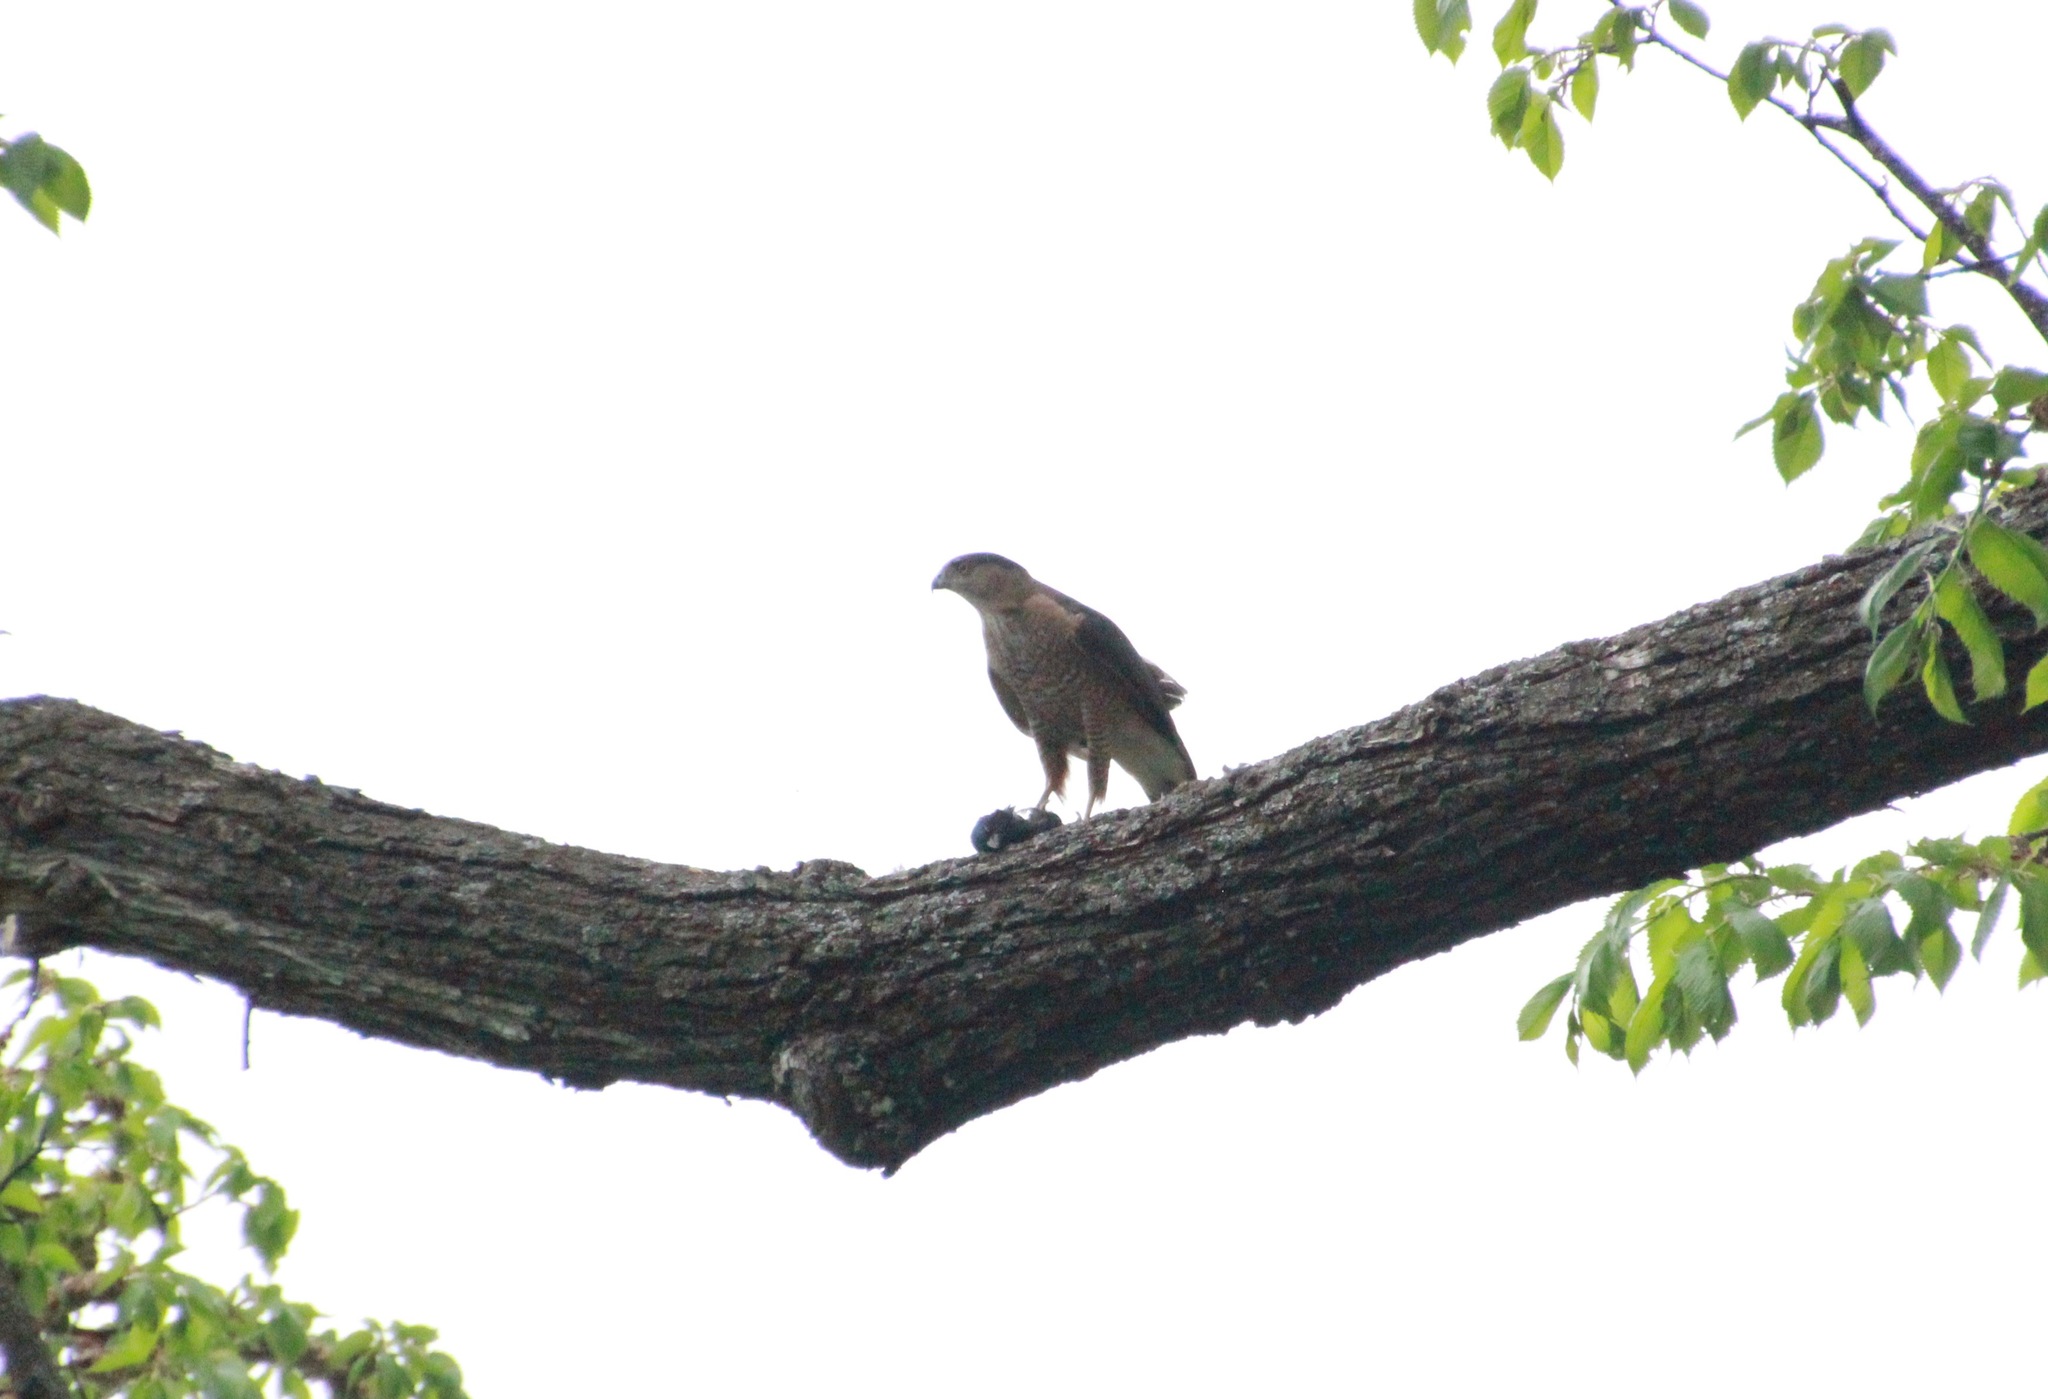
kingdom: Animalia
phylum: Chordata
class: Aves
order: Accipitriformes
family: Accipitridae
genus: Accipiter
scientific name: Accipiter cooperii
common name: Cooper's hawk
